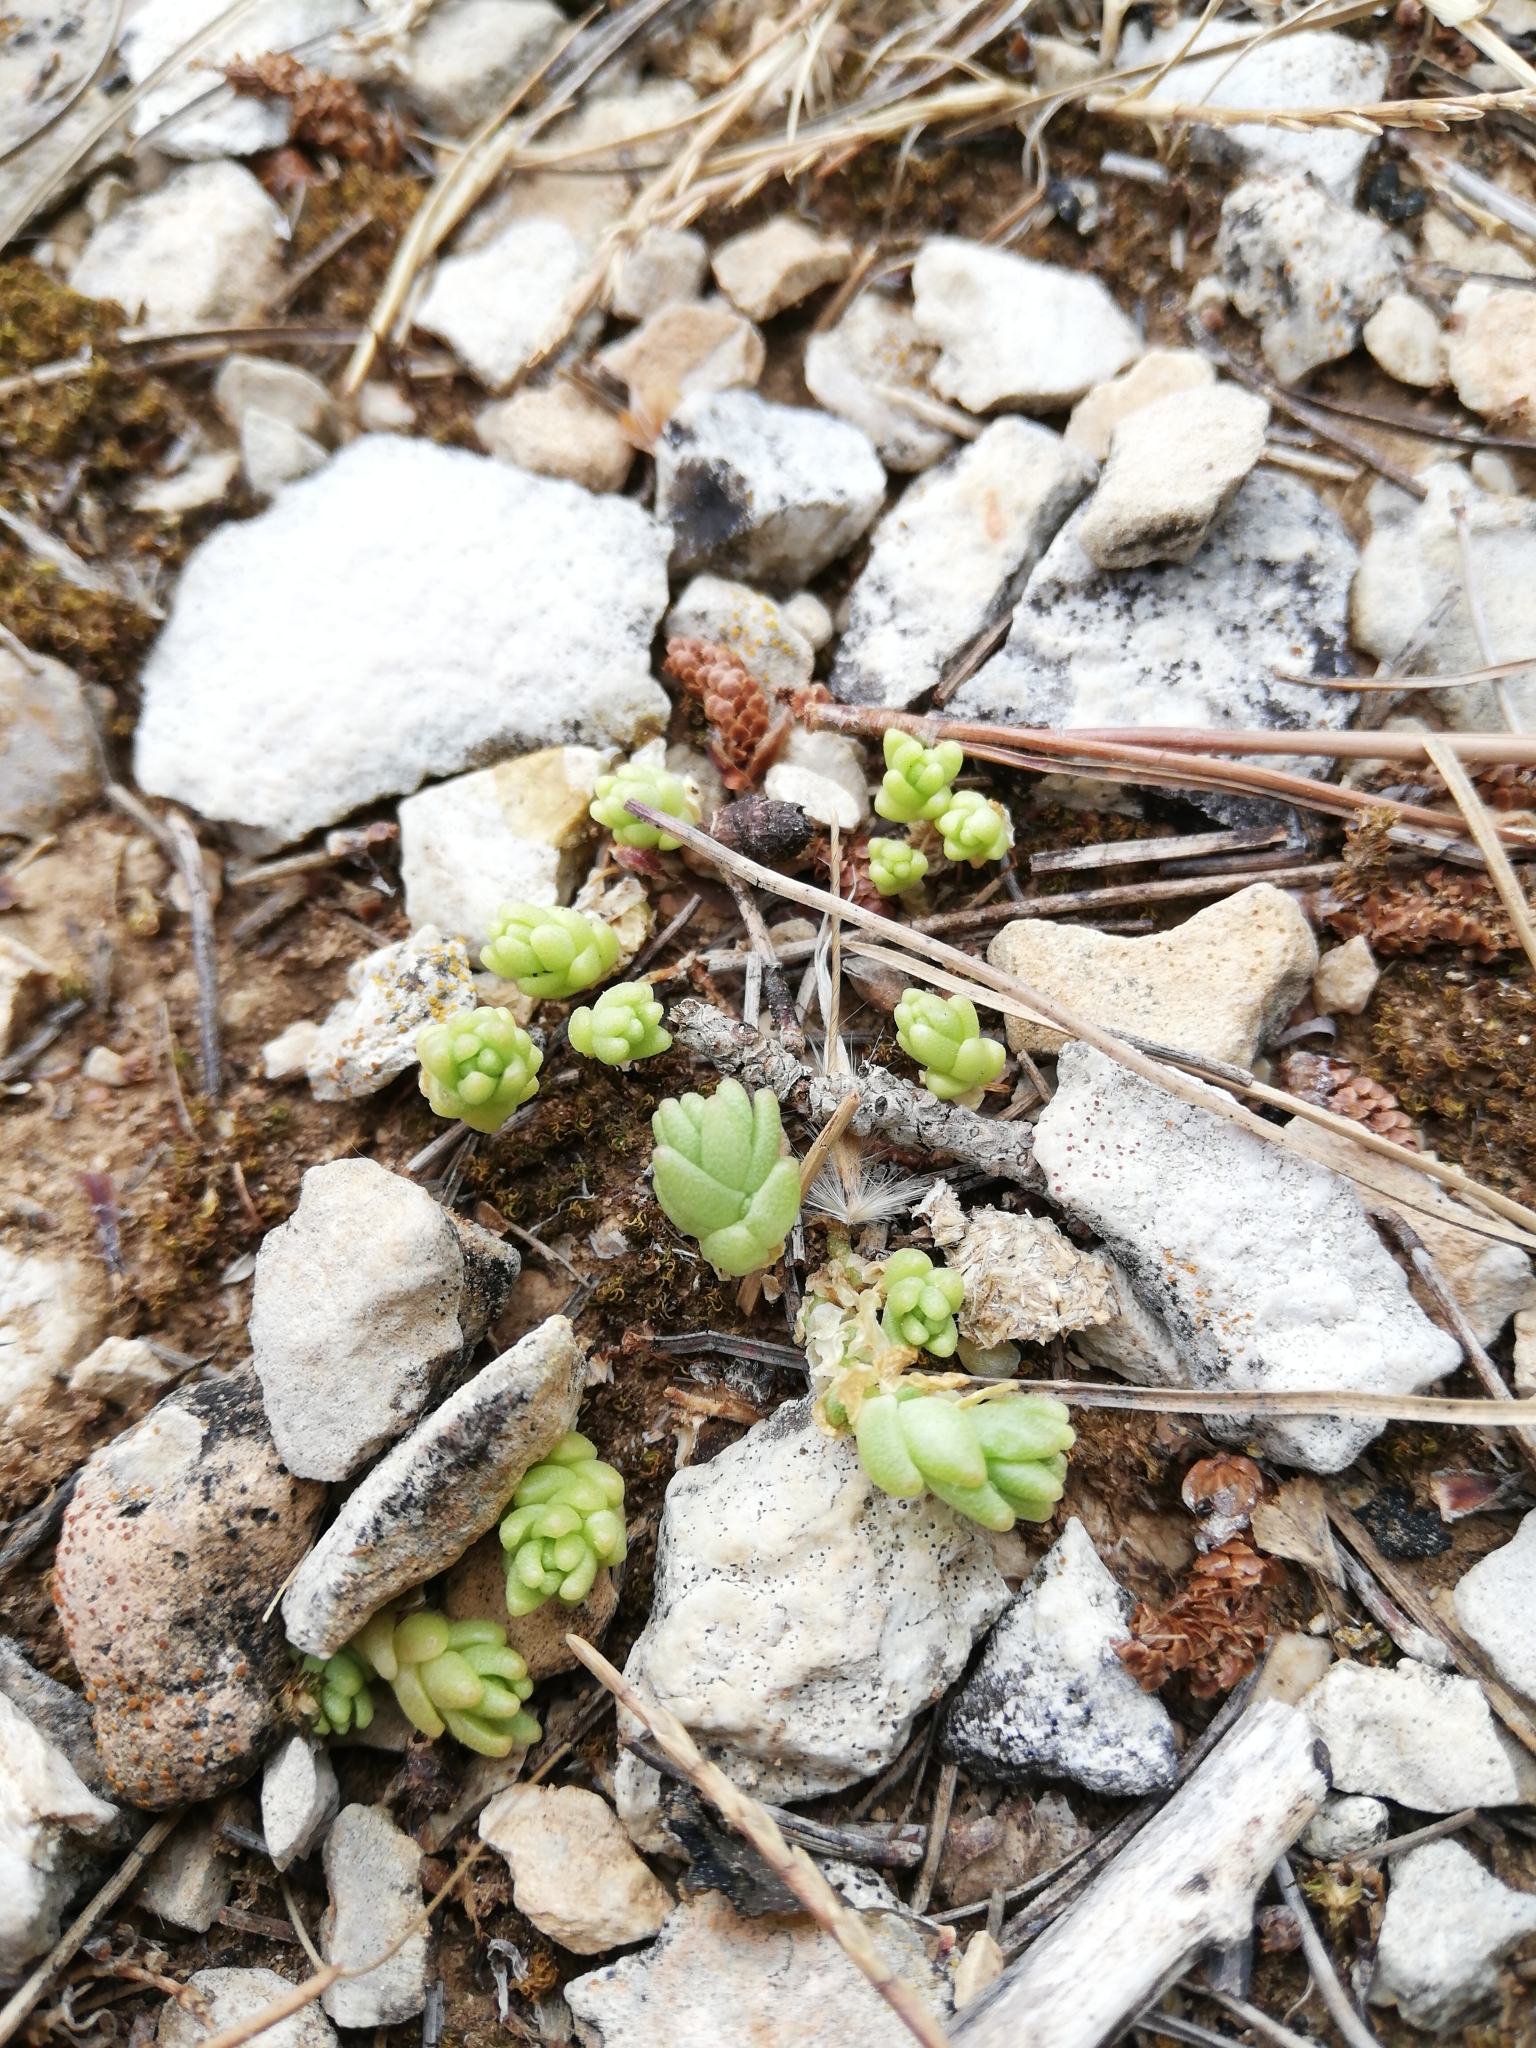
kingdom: Plantae
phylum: Tracheophyta
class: Magnoliopsida
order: Saxifragales
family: Crassulaceae
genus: Sedum
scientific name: Sedum acre
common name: Biting stonecrop
